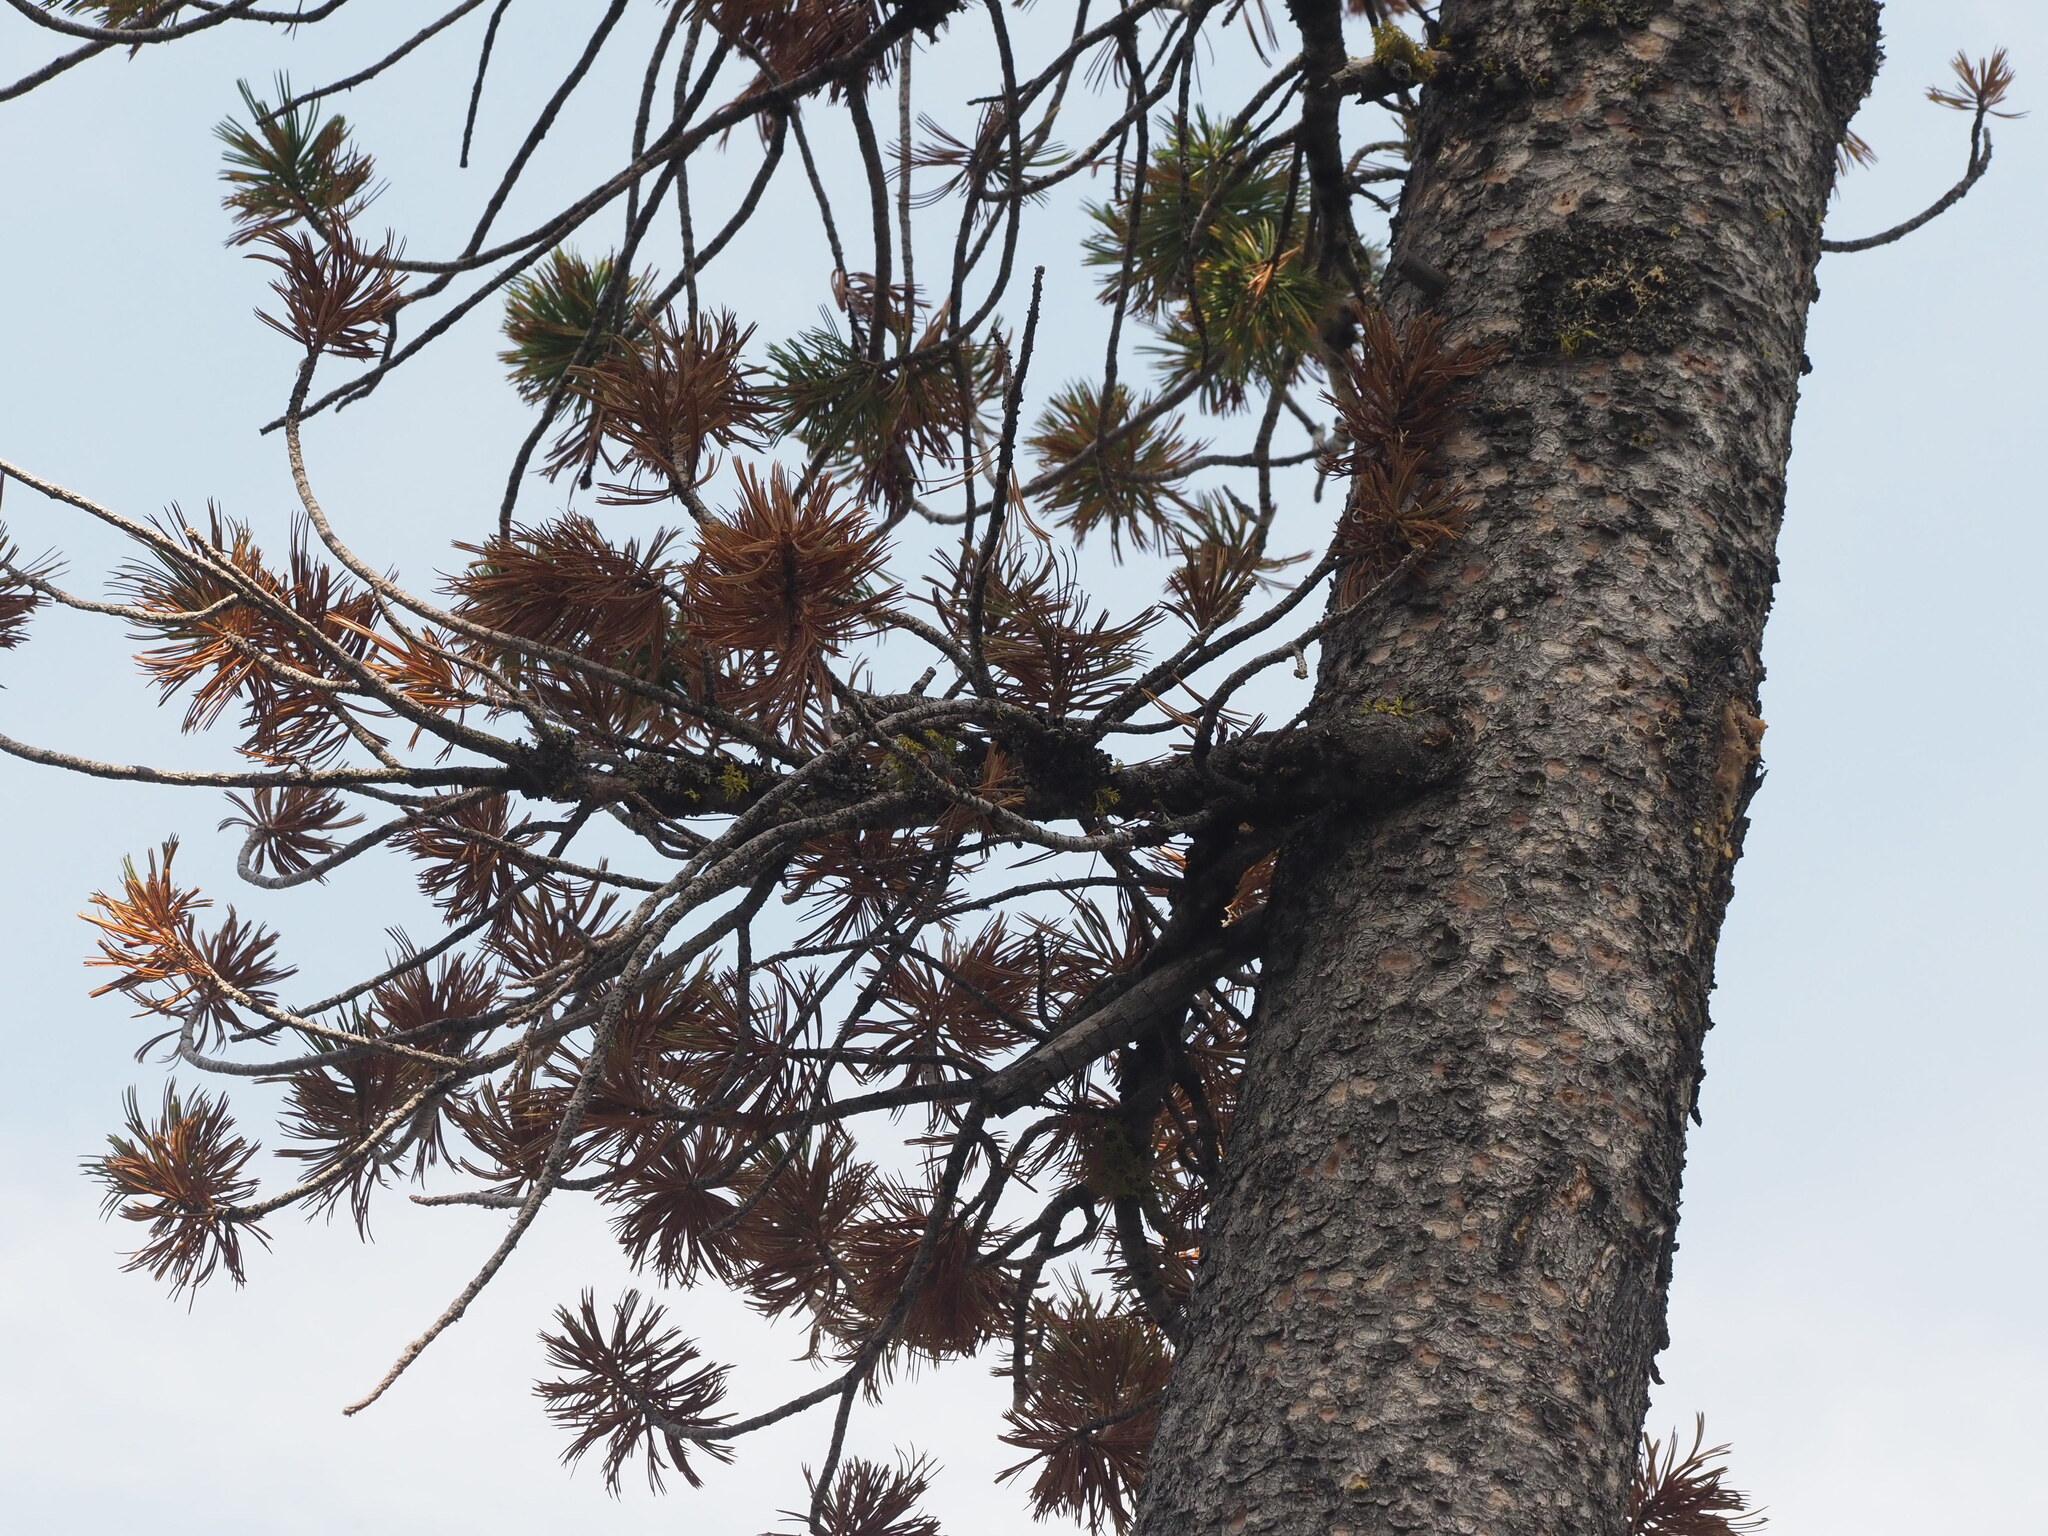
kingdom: Plantae
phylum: Tracheophyta
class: Pinopsida
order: Pinales
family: Pinaceae
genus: Pinus
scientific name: Pinus albicaulis
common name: Whitebark pine
